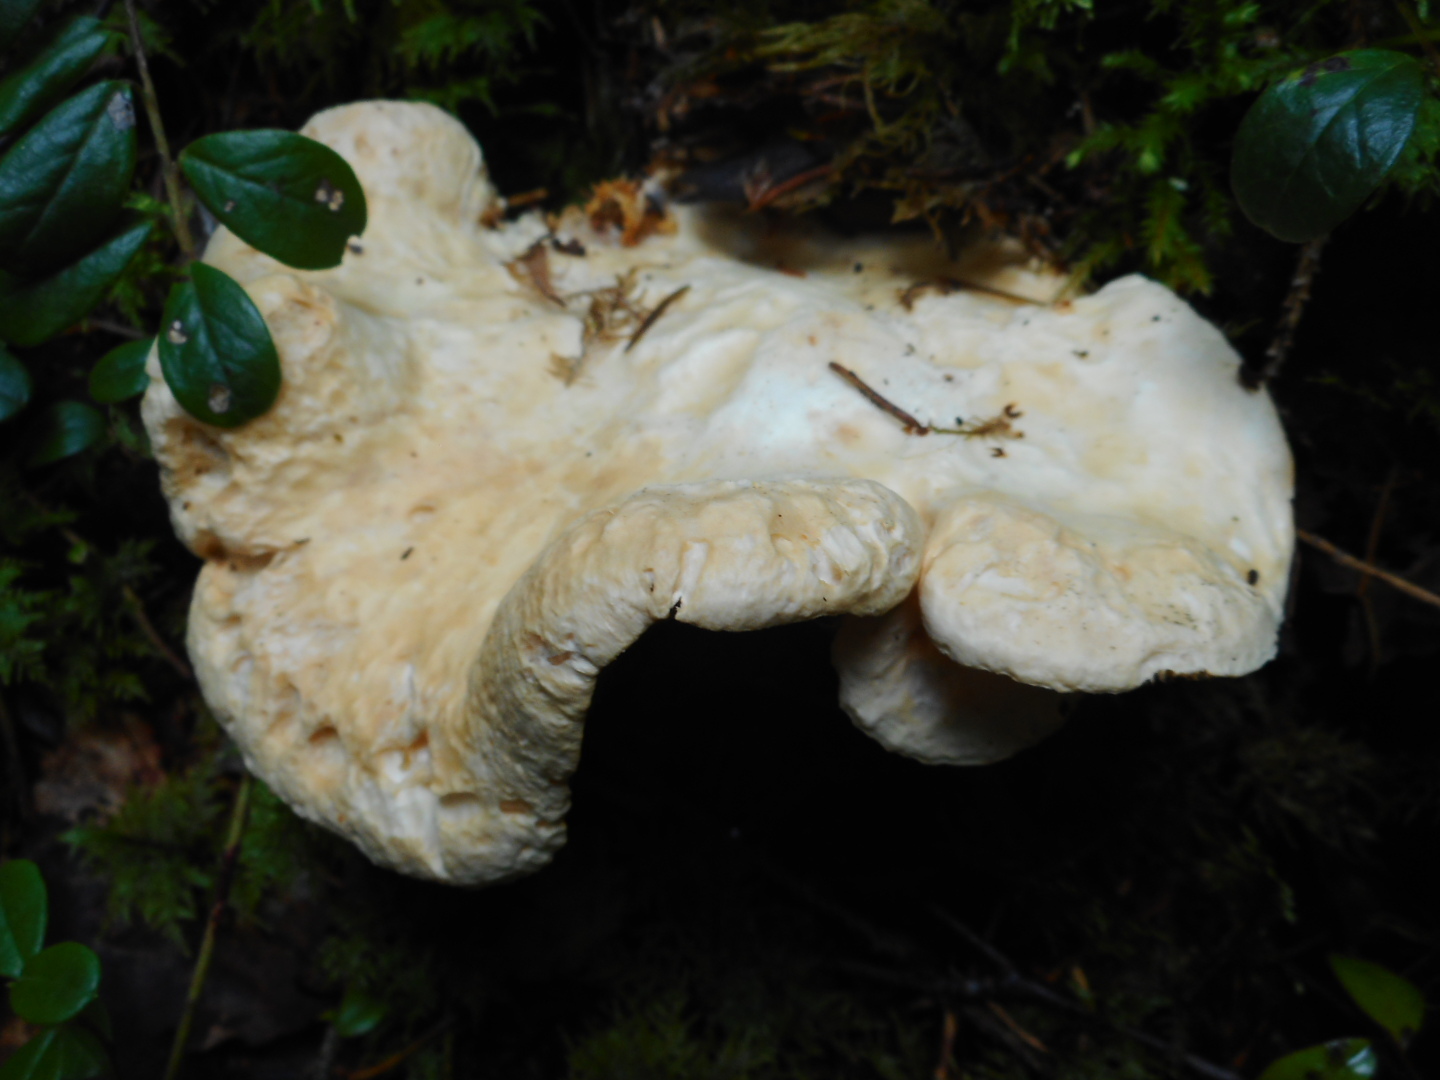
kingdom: Fungi
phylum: Basidiomycota
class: Agaricomycetes
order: Cantharellales
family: Hydnaceae
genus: Hydnum
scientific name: Hydnum repandum
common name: Wood hedgehog
